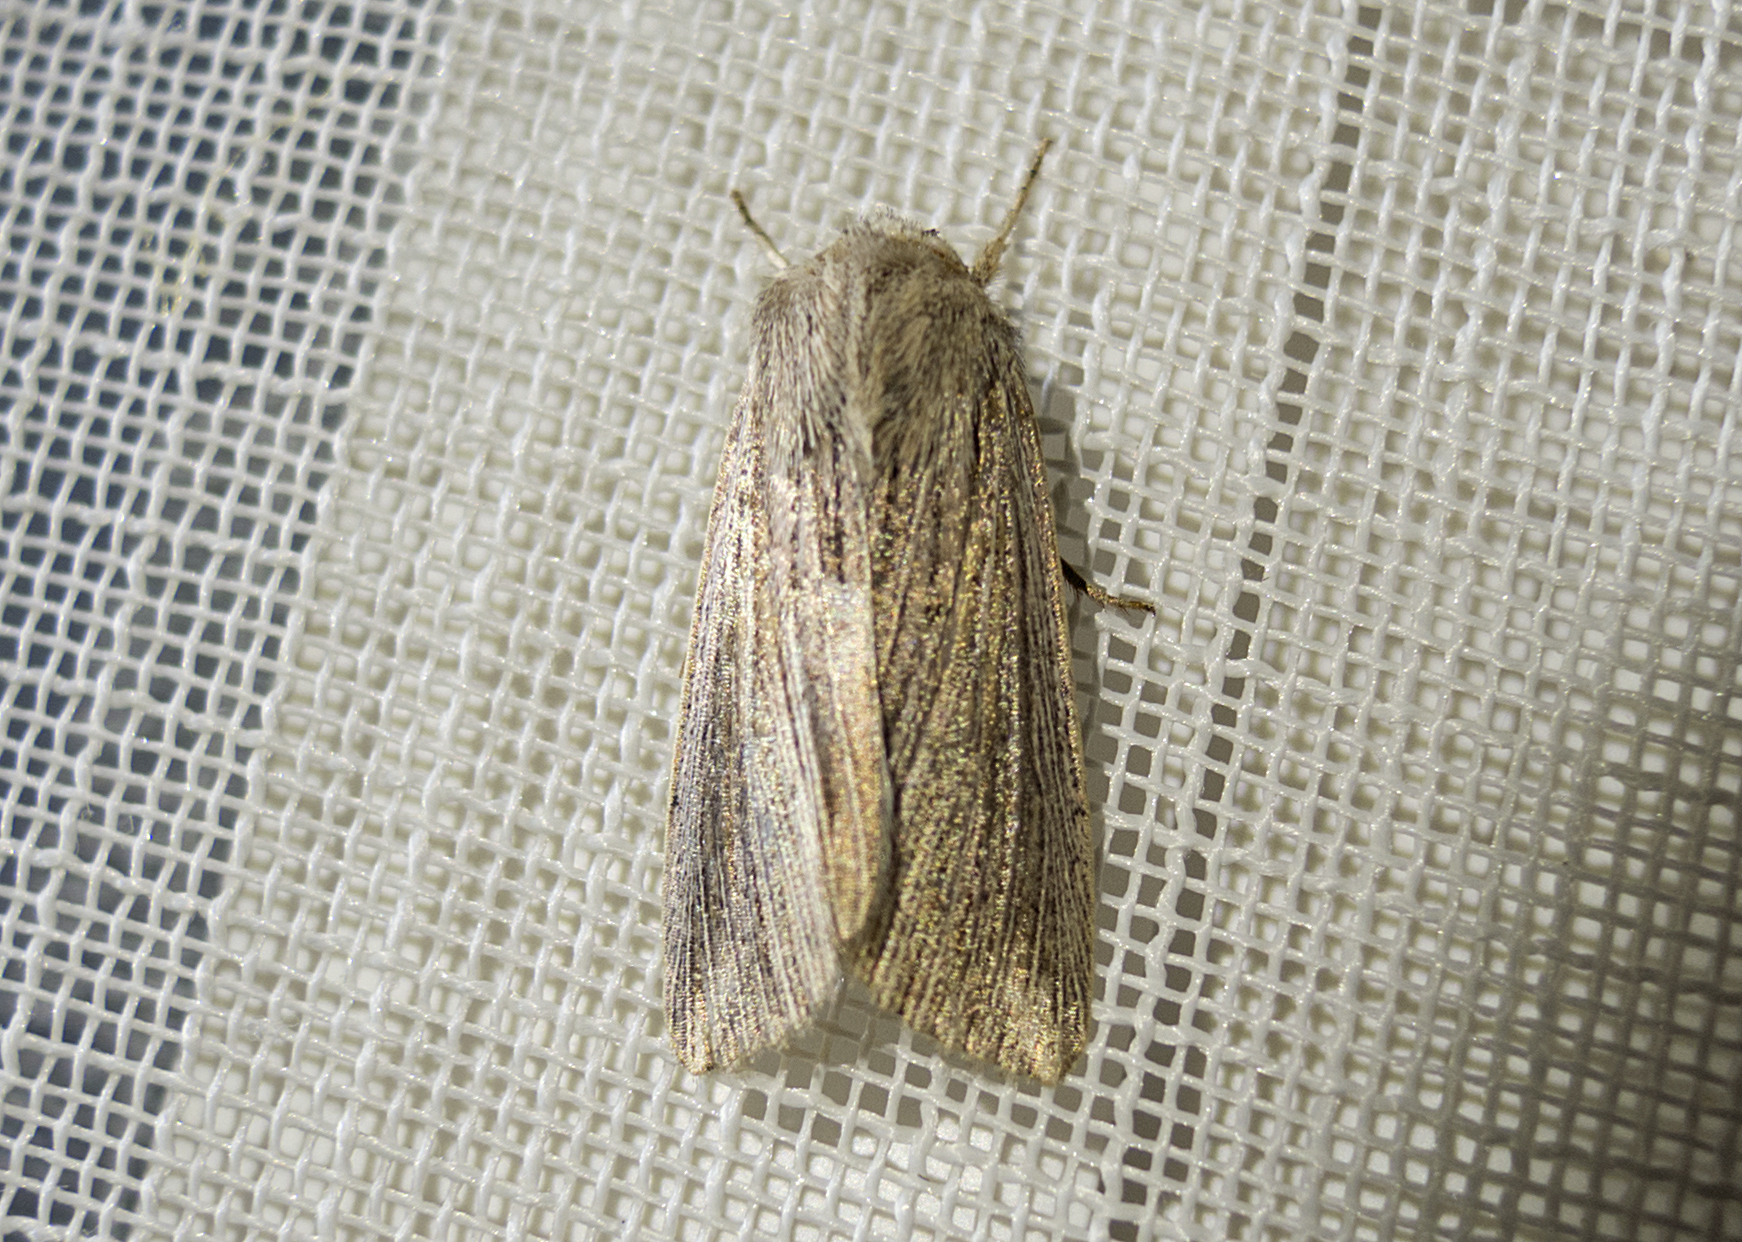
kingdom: Animalia
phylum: Arthropoda
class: Insecta
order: Lepidoptera
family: Noctuidae
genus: Mythimna
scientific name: Mythimna riparia
